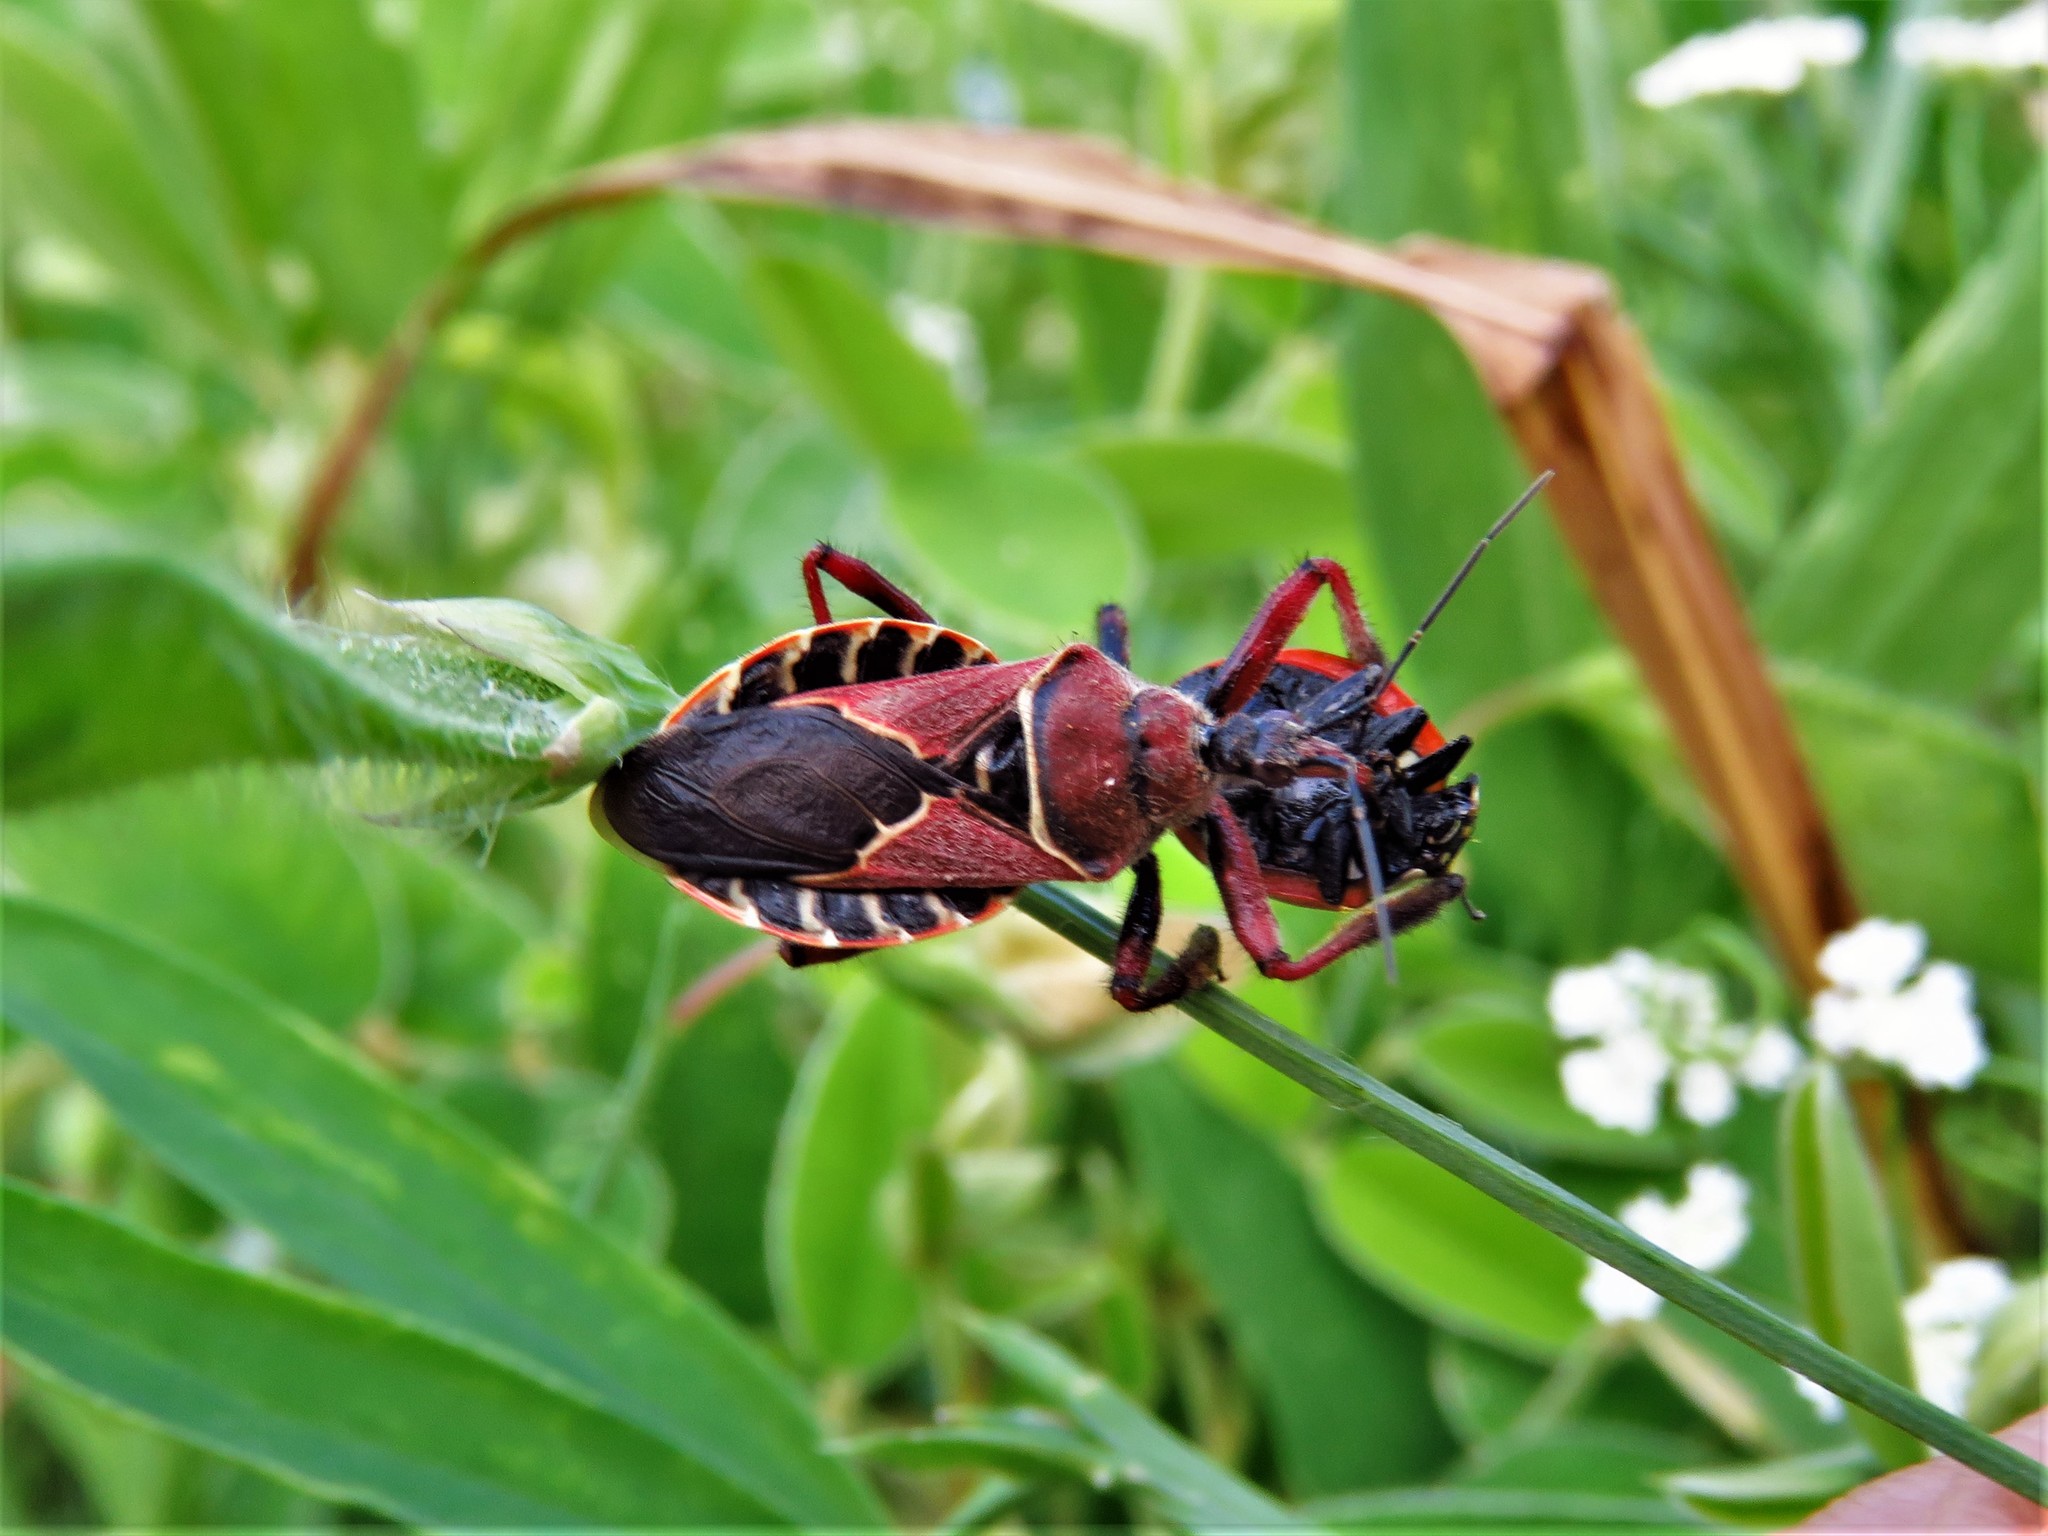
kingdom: Animalia
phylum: Arthropoda
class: Insecta
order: Hemiptera
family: Reduviidae
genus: Apiomerus
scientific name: Apiomerus spissipes
